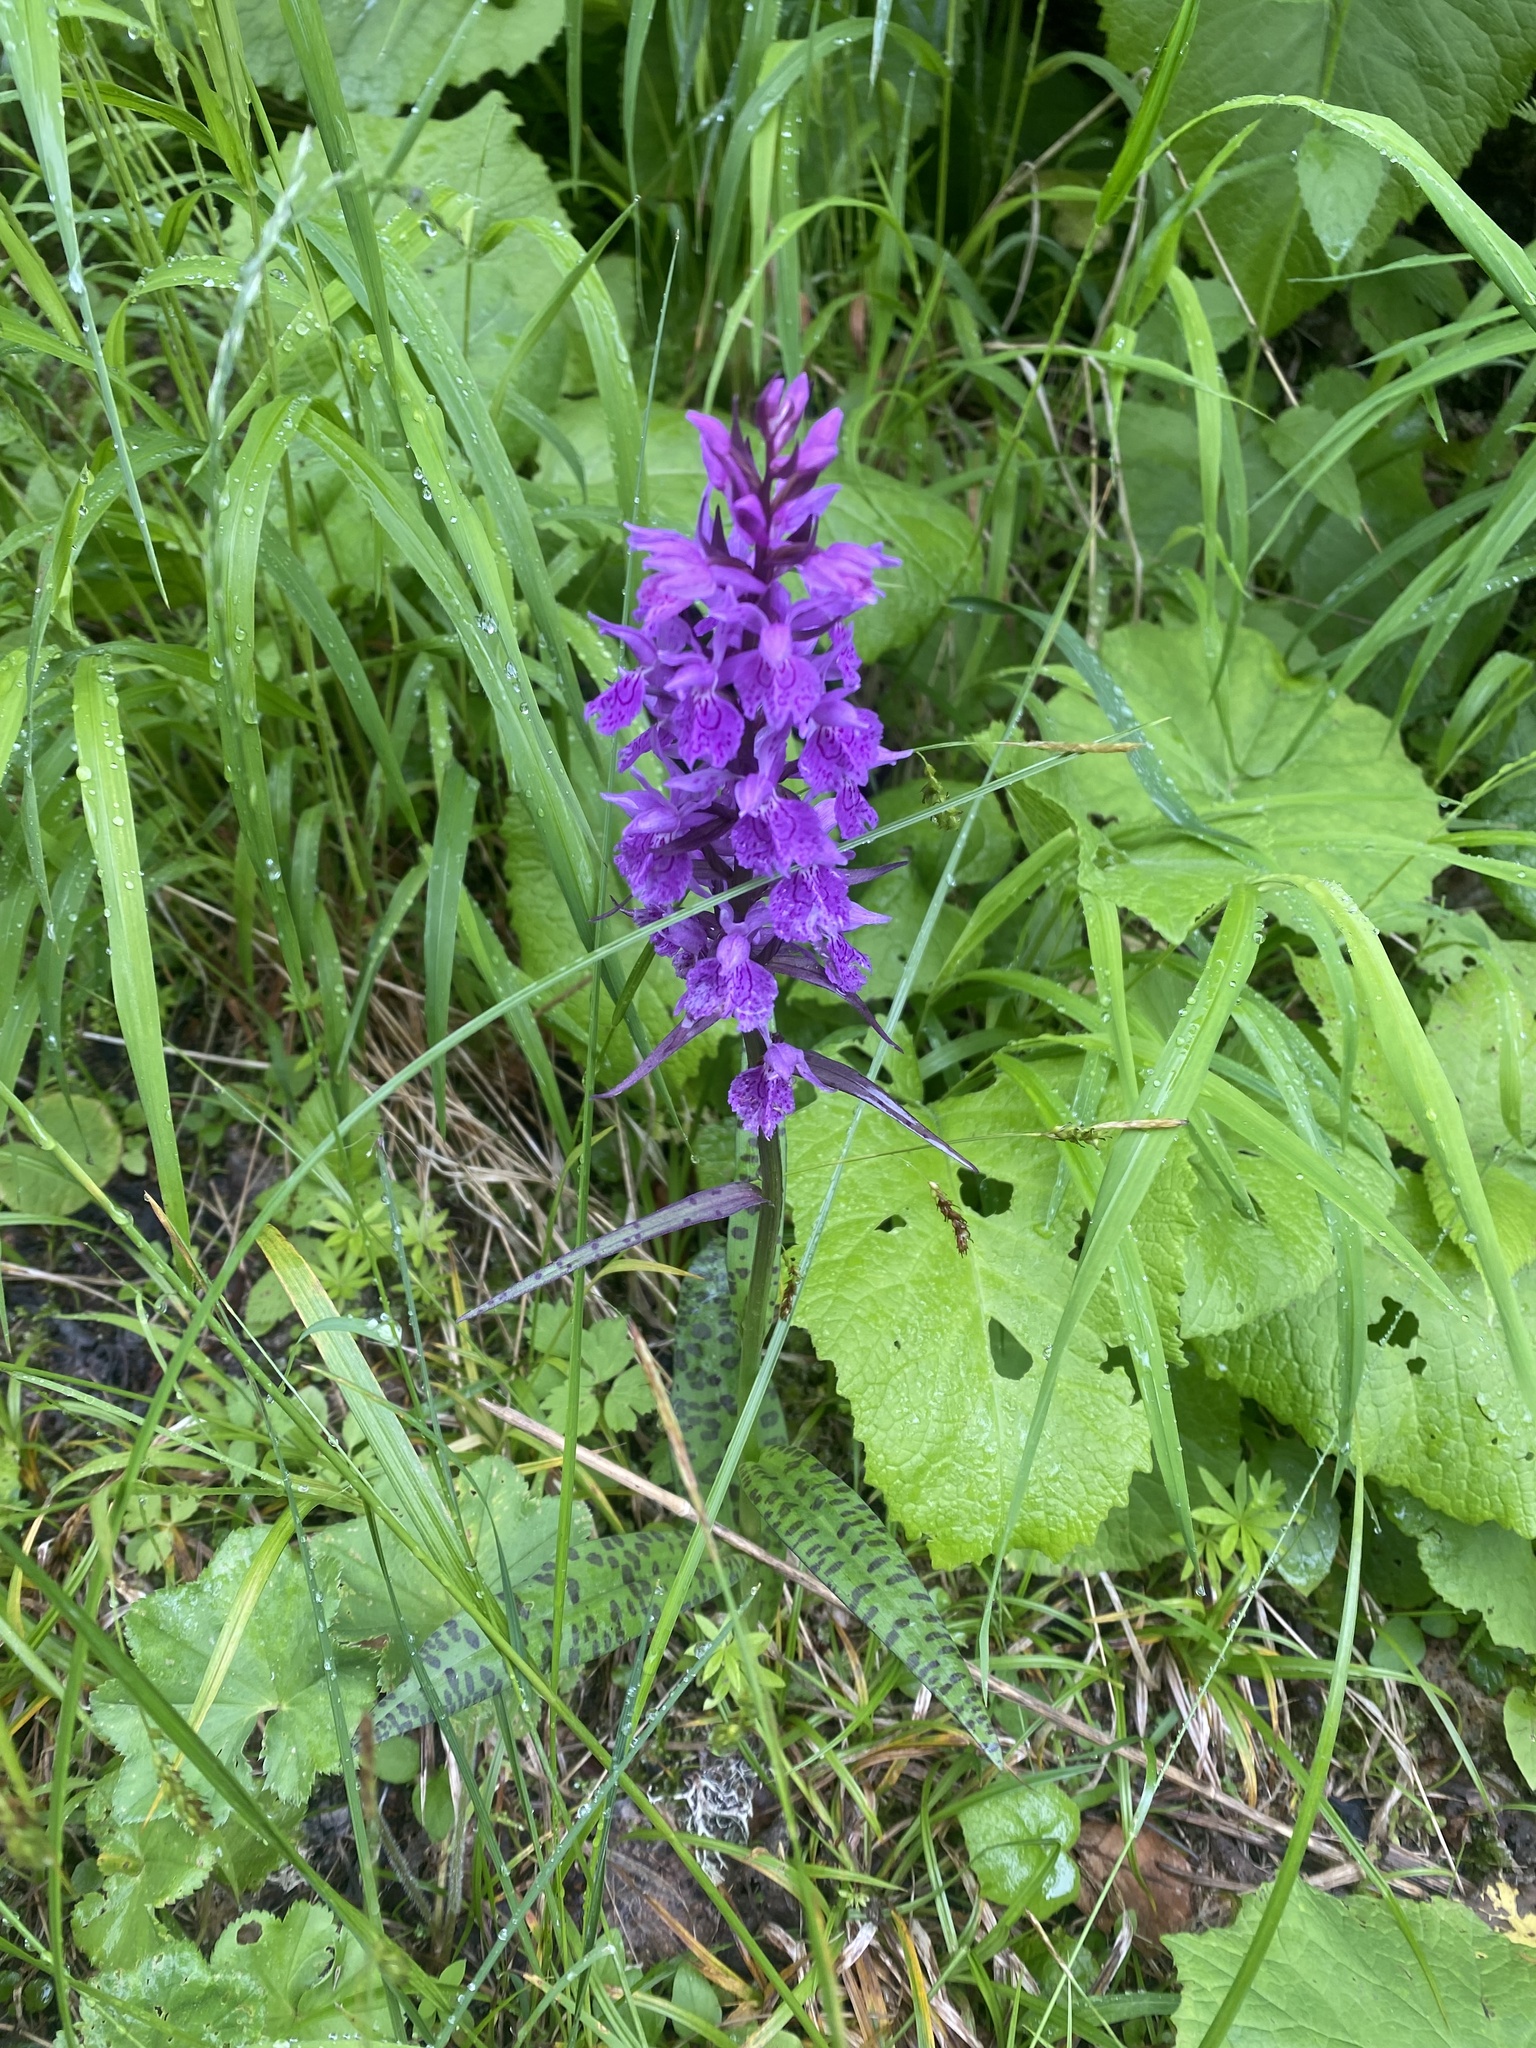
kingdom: Plantae
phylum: Tracheophyta
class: Liliopsida
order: Asparagales
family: Orchidaceae
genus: Dactylorhiza
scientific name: Dactylorhiza urvilleana
